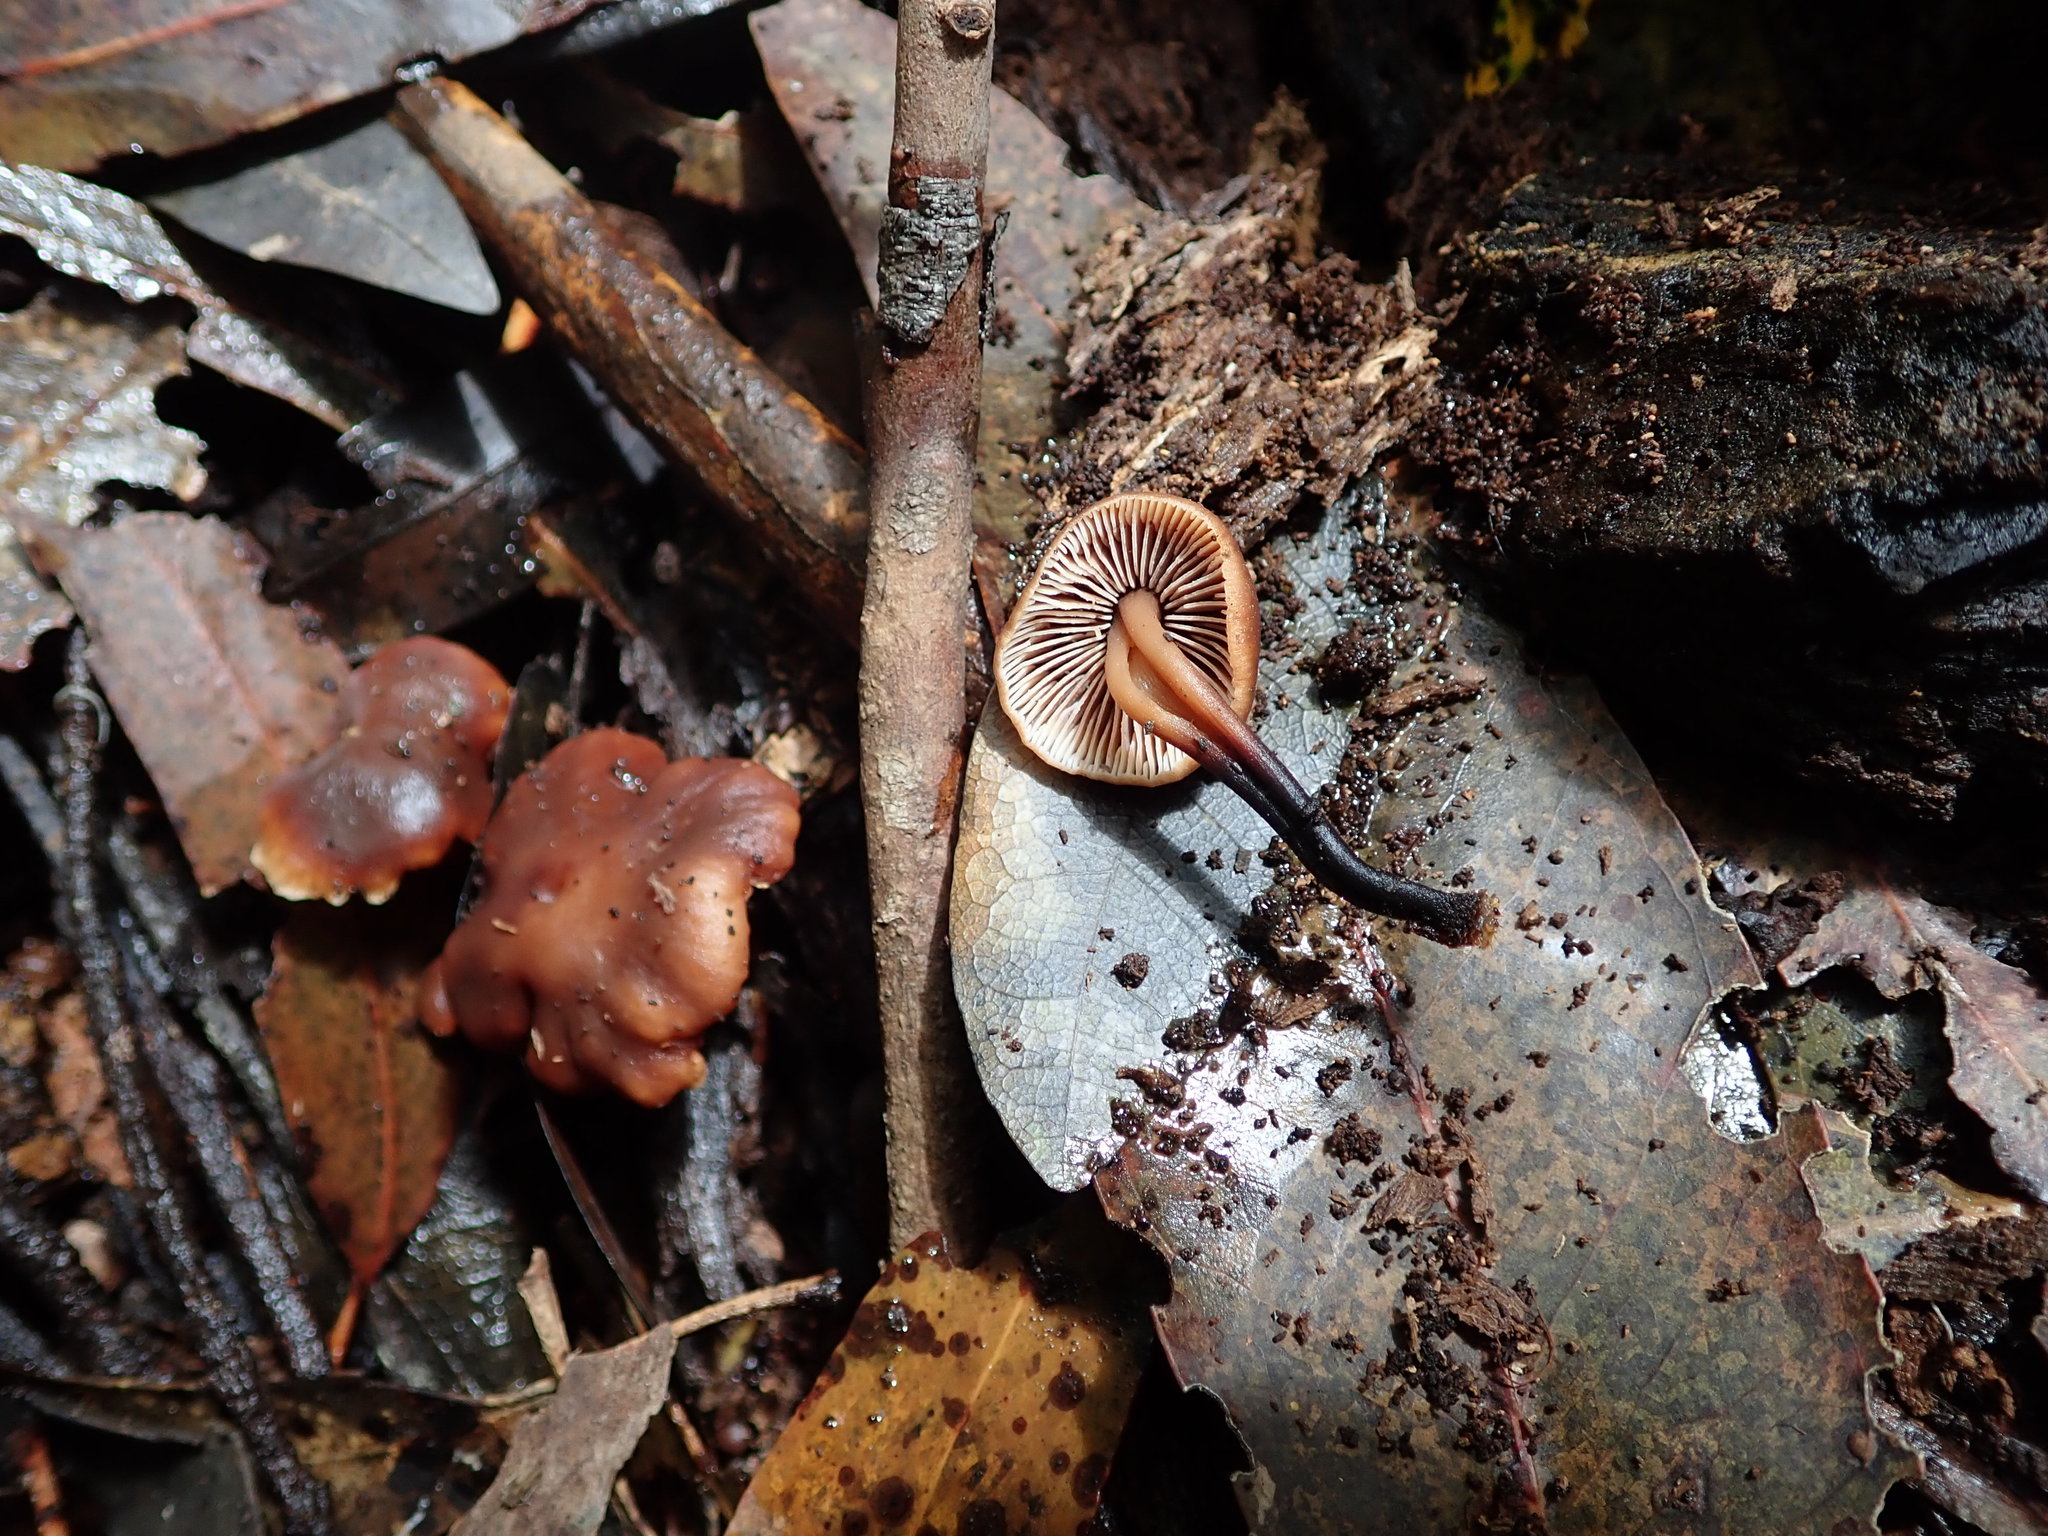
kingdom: Fungi
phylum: Basidiomycota
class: Agaricomycetes
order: Agaricales
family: Omphalotaceae
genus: Gymnopus
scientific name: Gymnopus brassicolens
